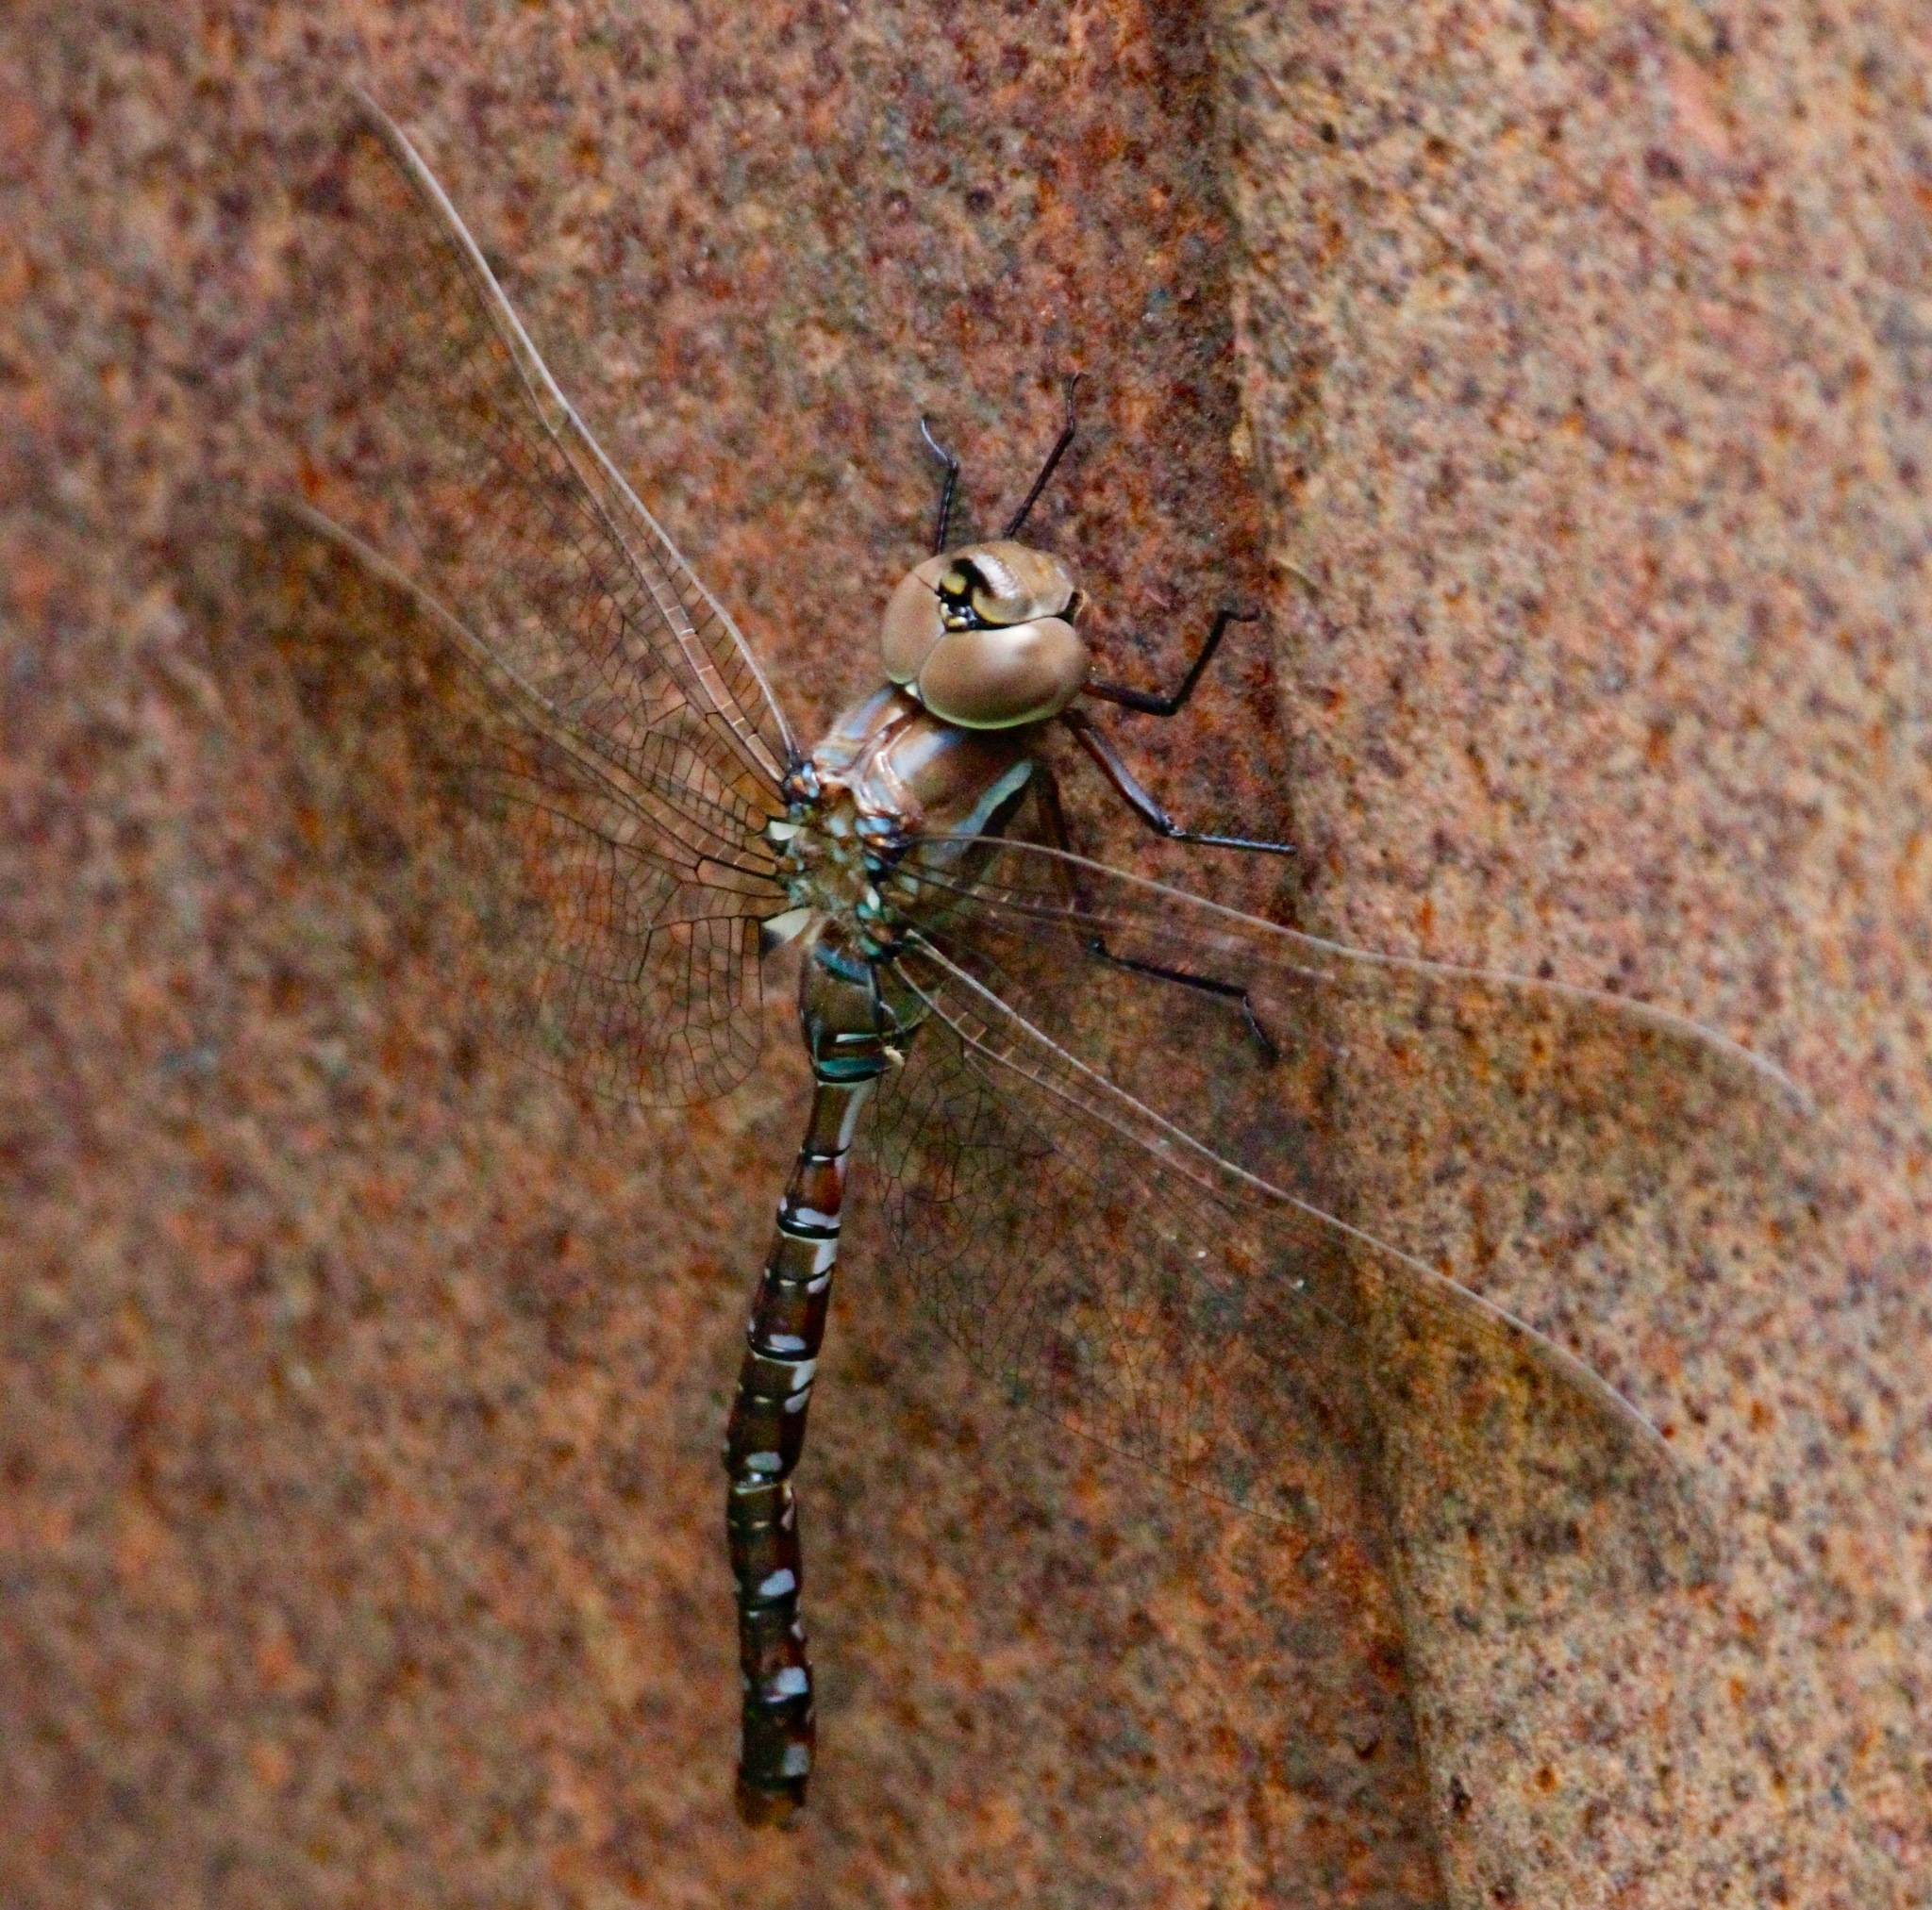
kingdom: Animalia
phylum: Arthropoda
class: Insecta
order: Odonata
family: Aeshnidae
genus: Aeshna
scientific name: Aeshna constricta
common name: Lance-tipped darner
